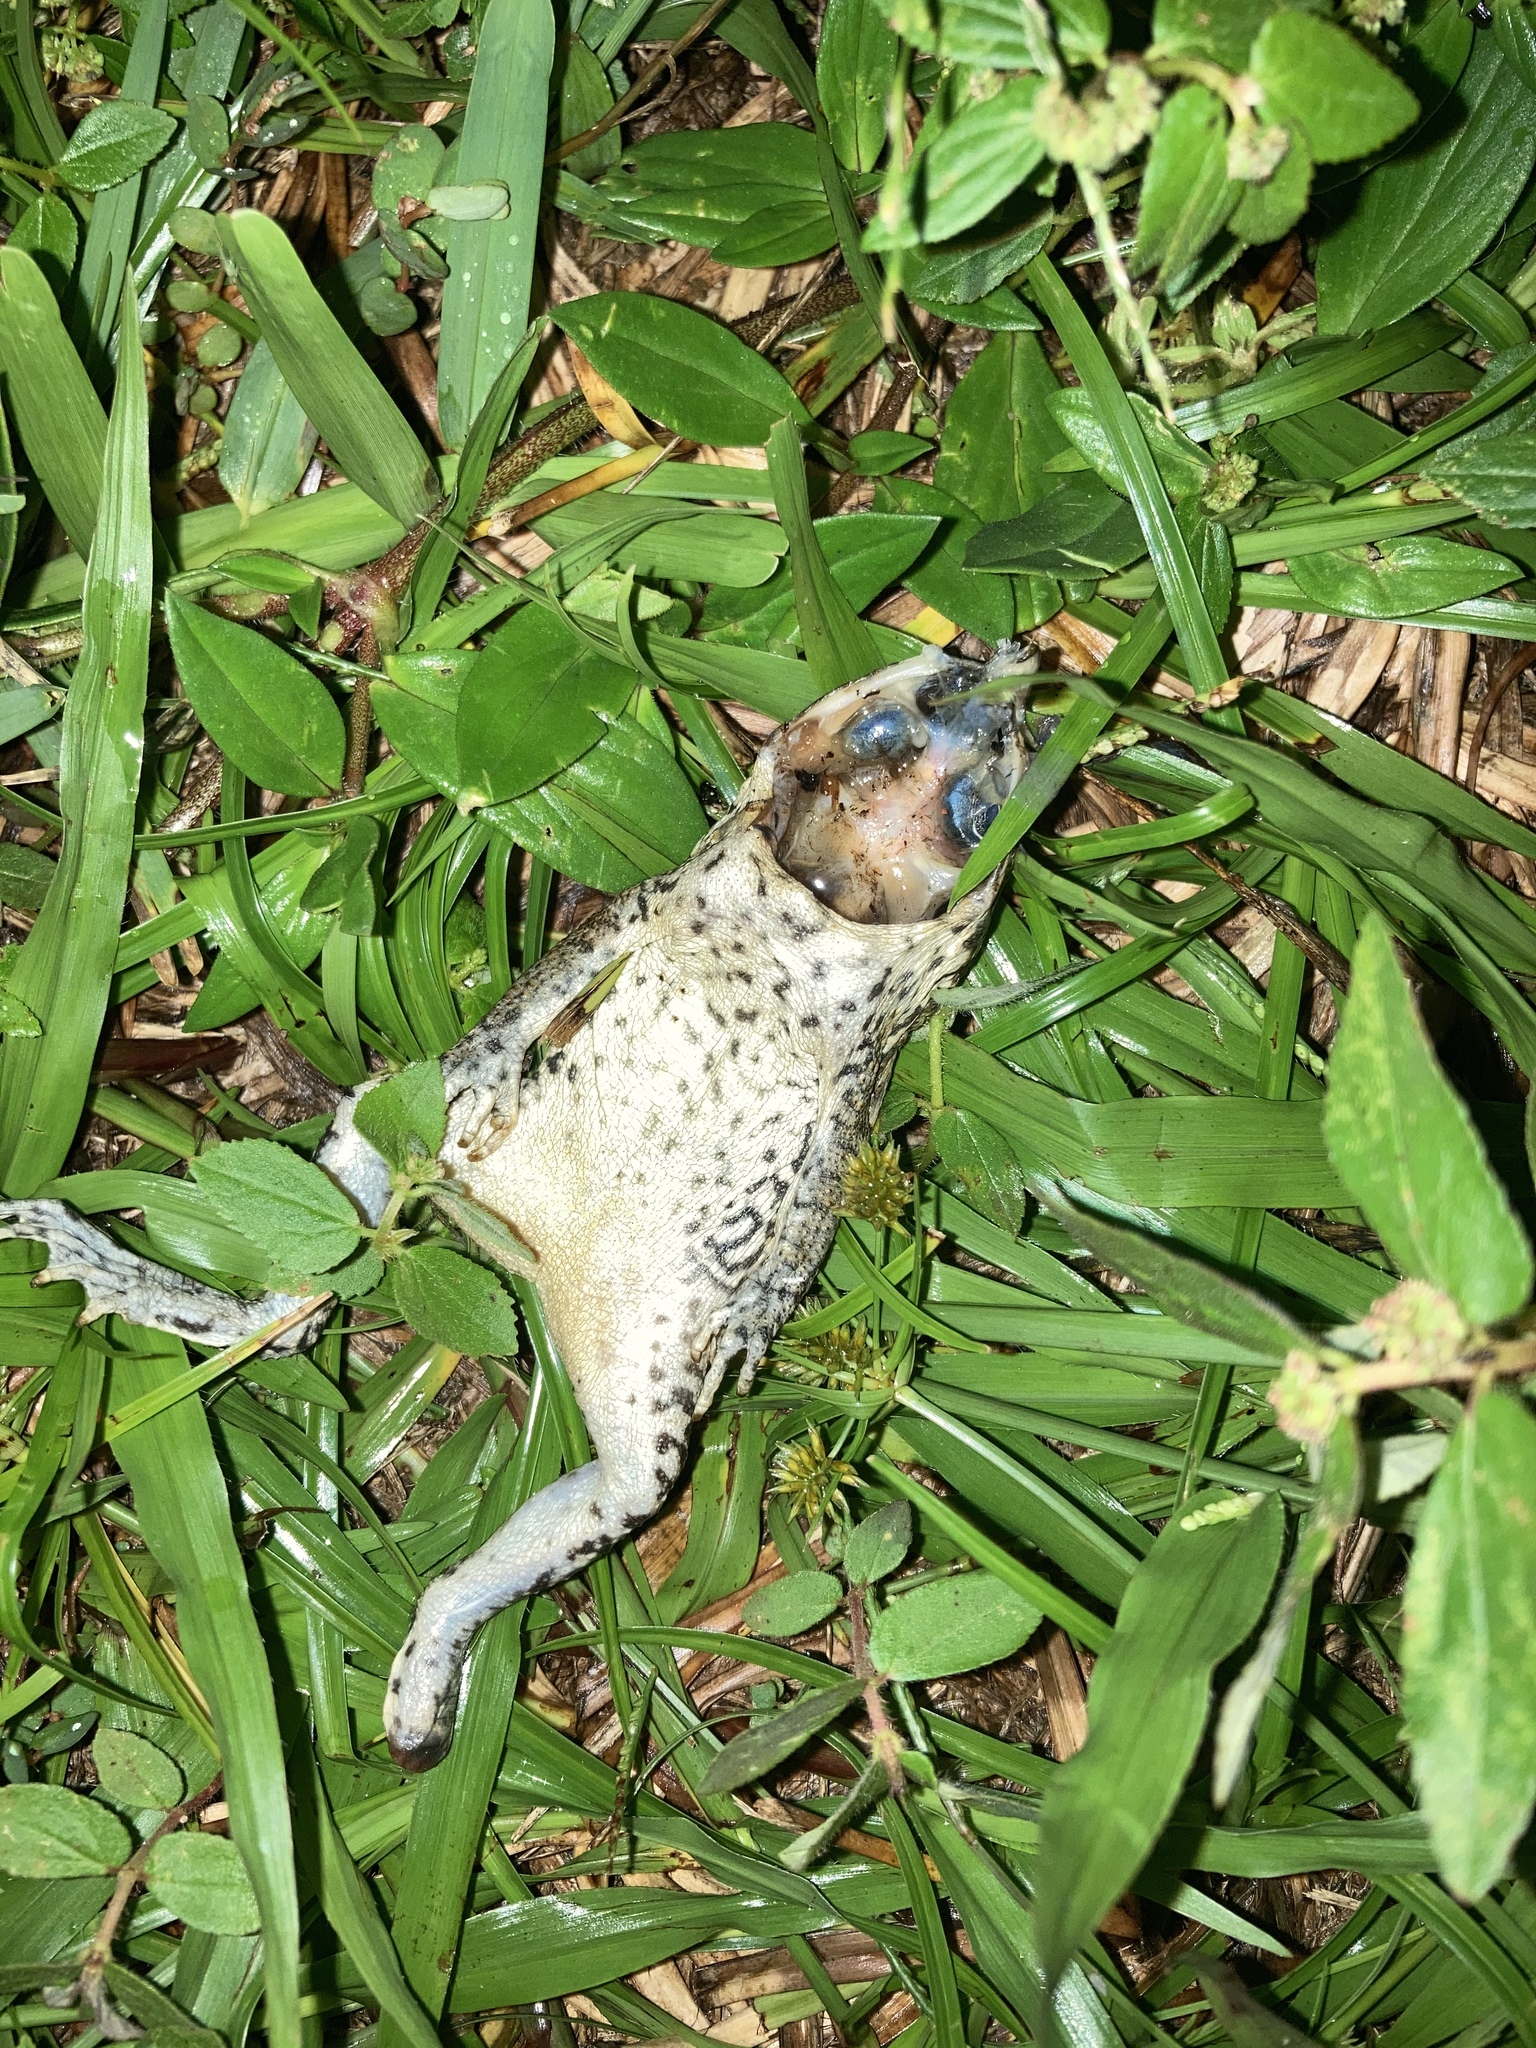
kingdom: Animalia
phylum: Chordata
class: Amphibia
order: Anura
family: Bufonidae
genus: Rhinella
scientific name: Rhinella marina
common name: Cane toad
